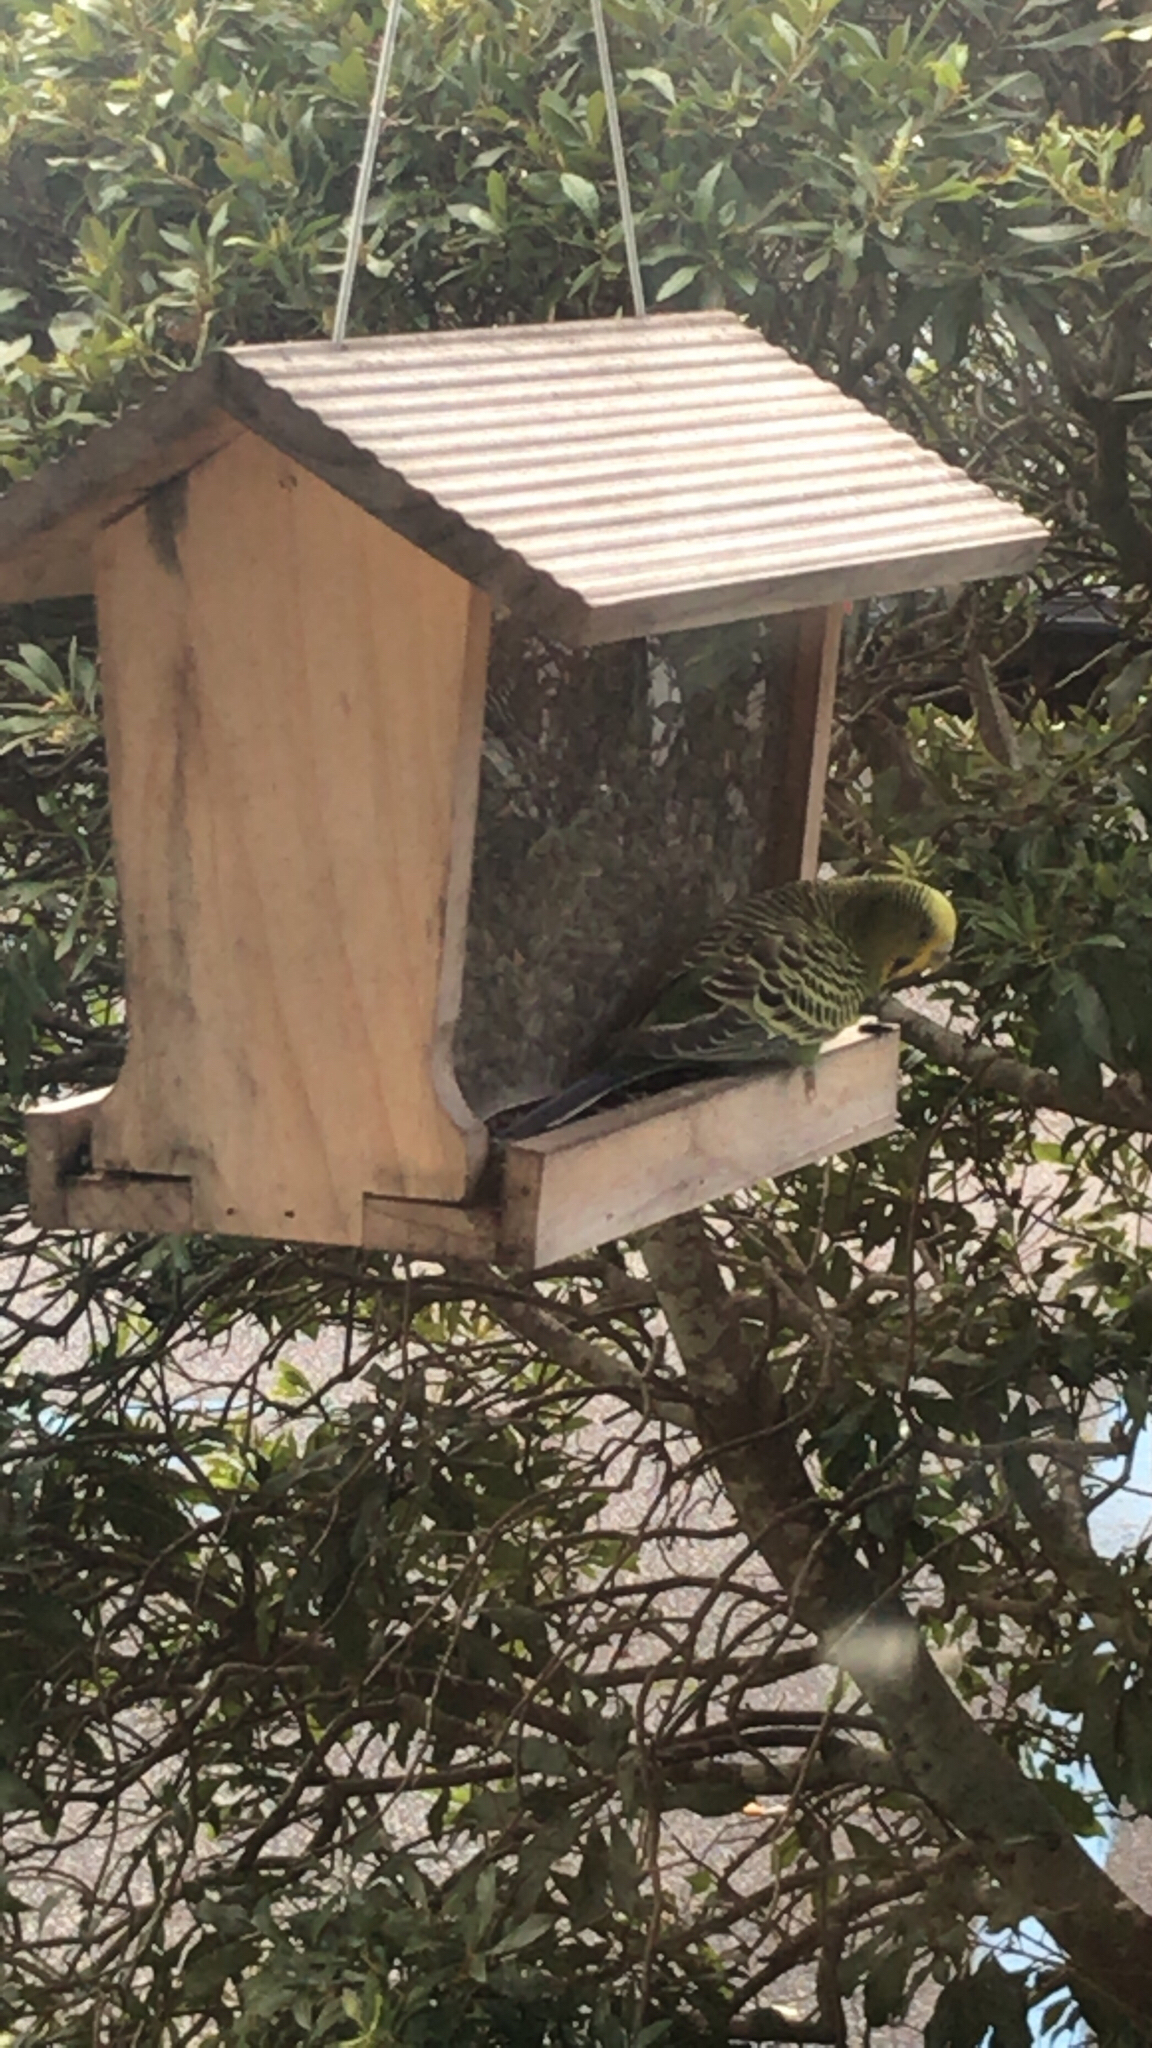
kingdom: Animalia
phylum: Chordata
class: Aves
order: Psittaciformes
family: Psittacidae
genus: Melopsittacus
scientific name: Melopsittacus undulatus
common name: Budgerigar
